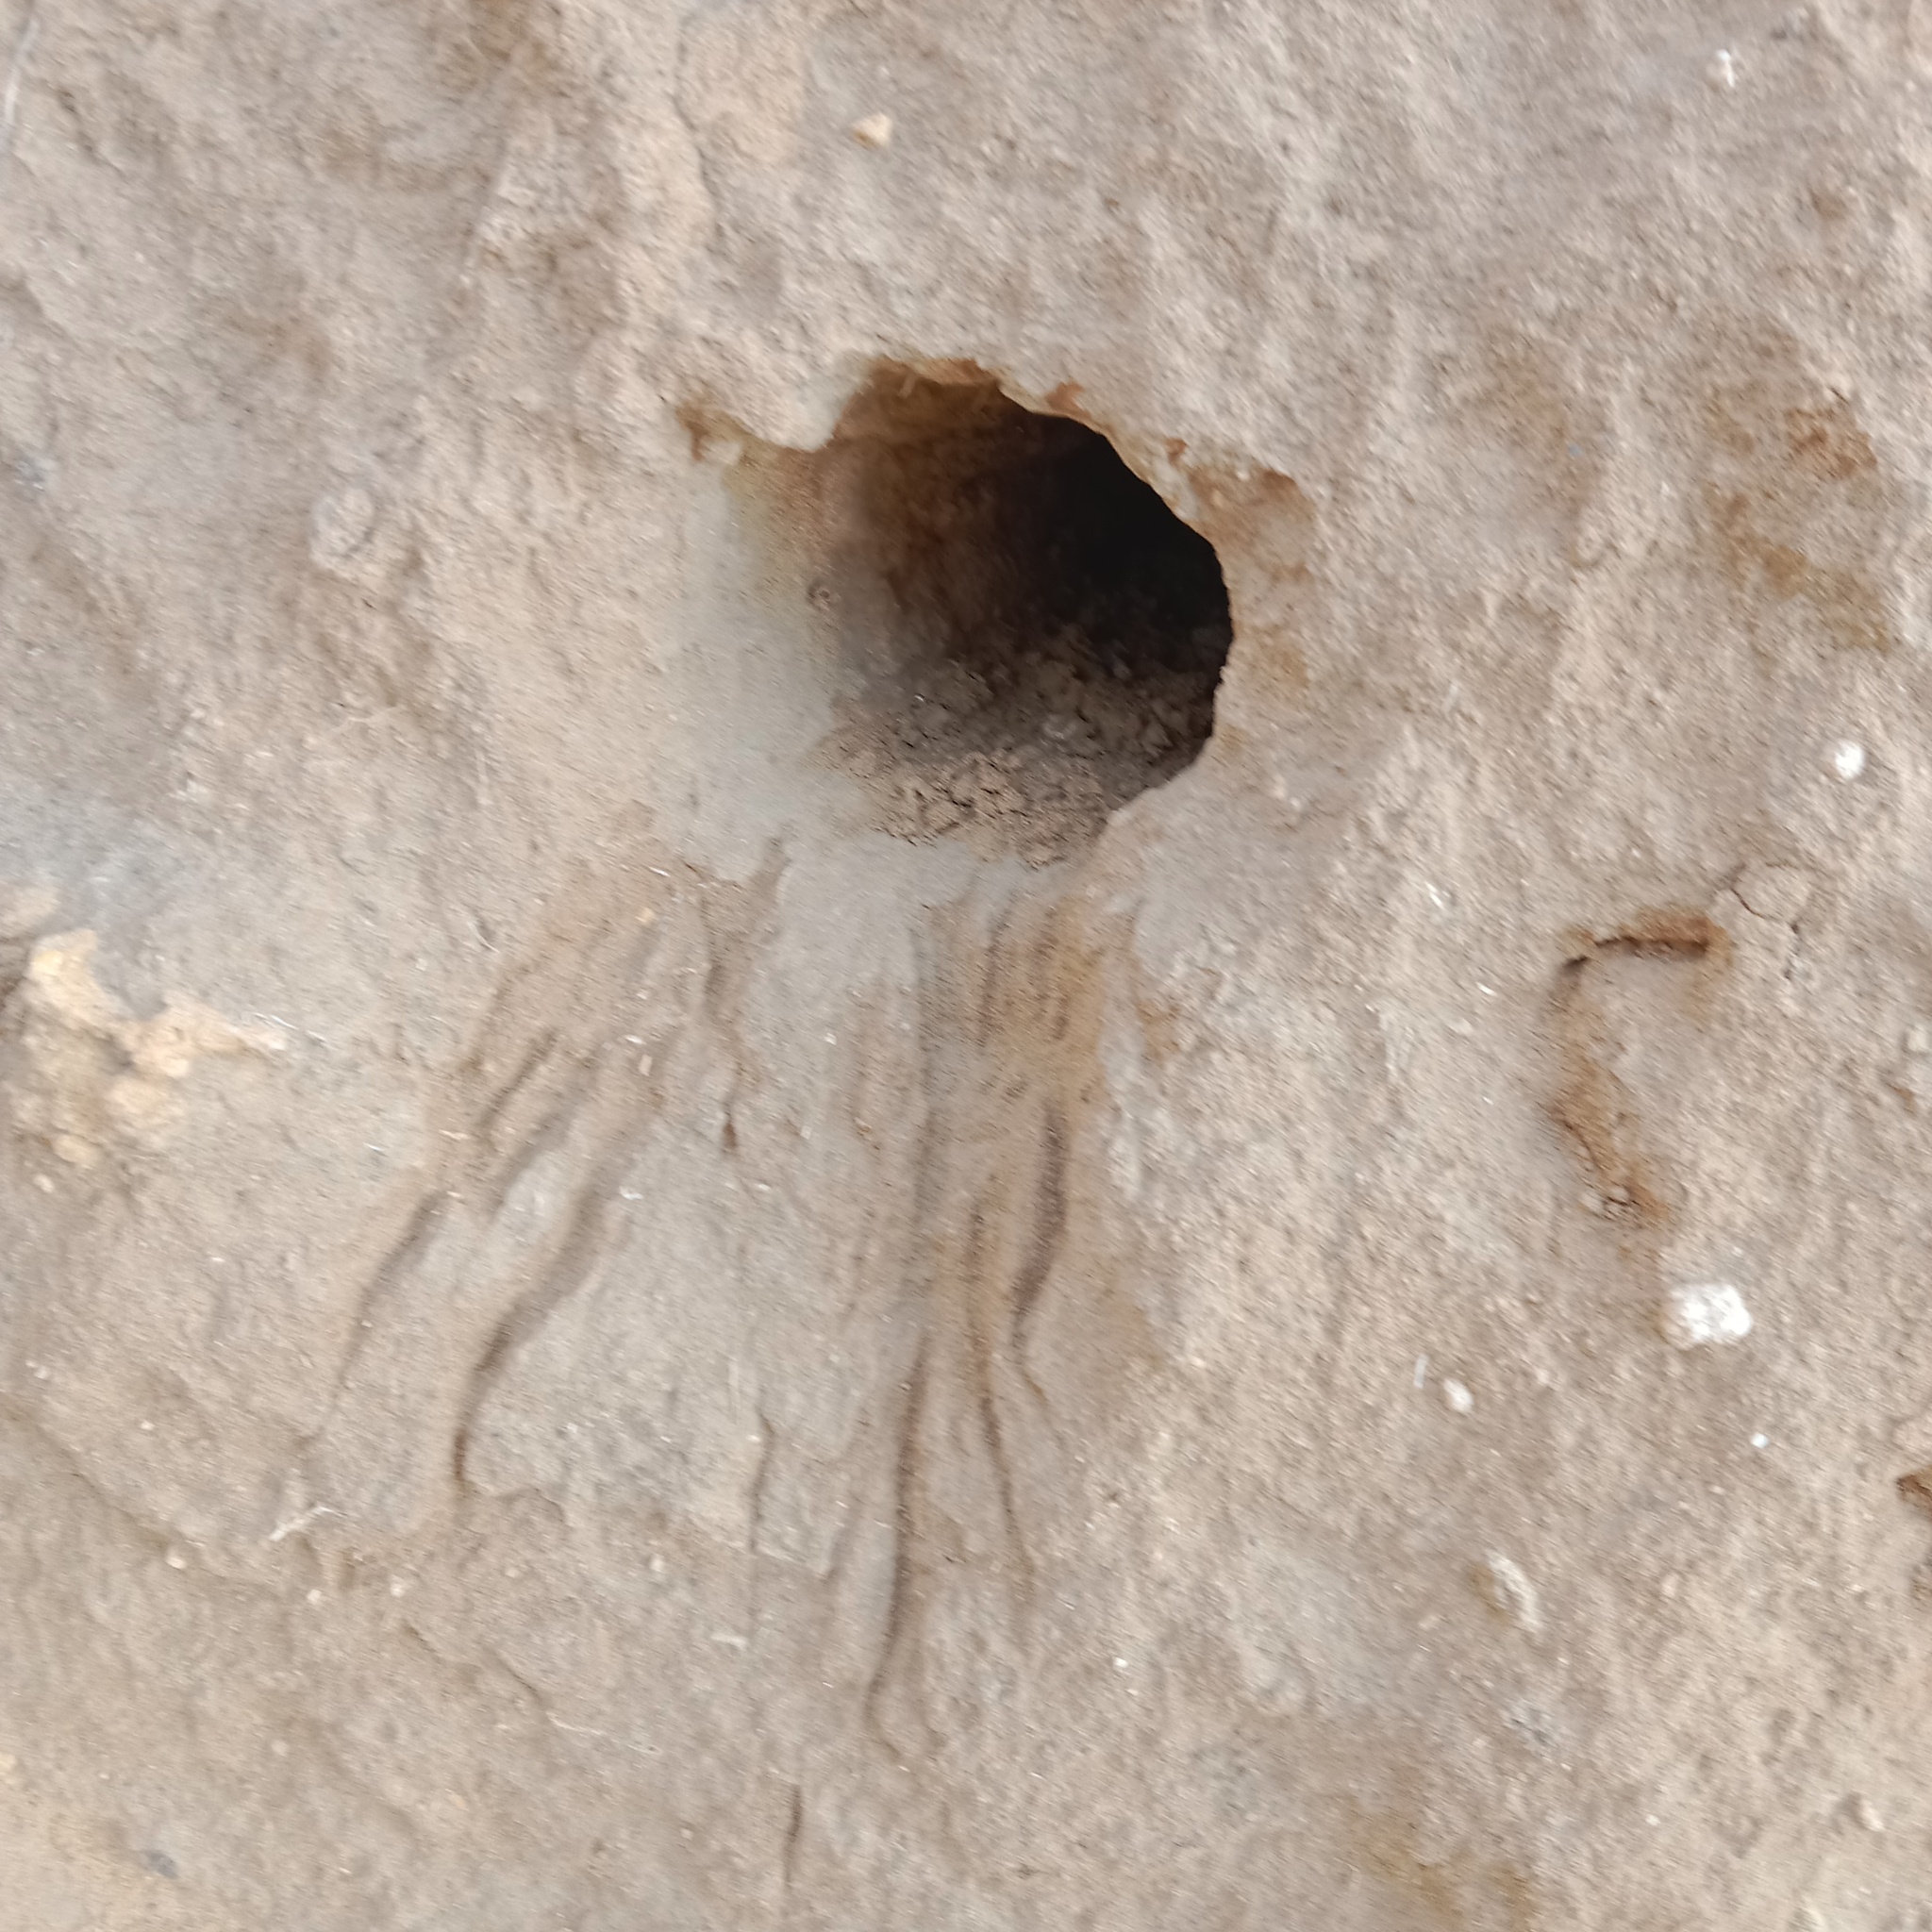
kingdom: Animalia
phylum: Chordata
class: Aves
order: Coraciiformes
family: Meropidae
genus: Merops
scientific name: Merops apiaster
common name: European bee-eater
